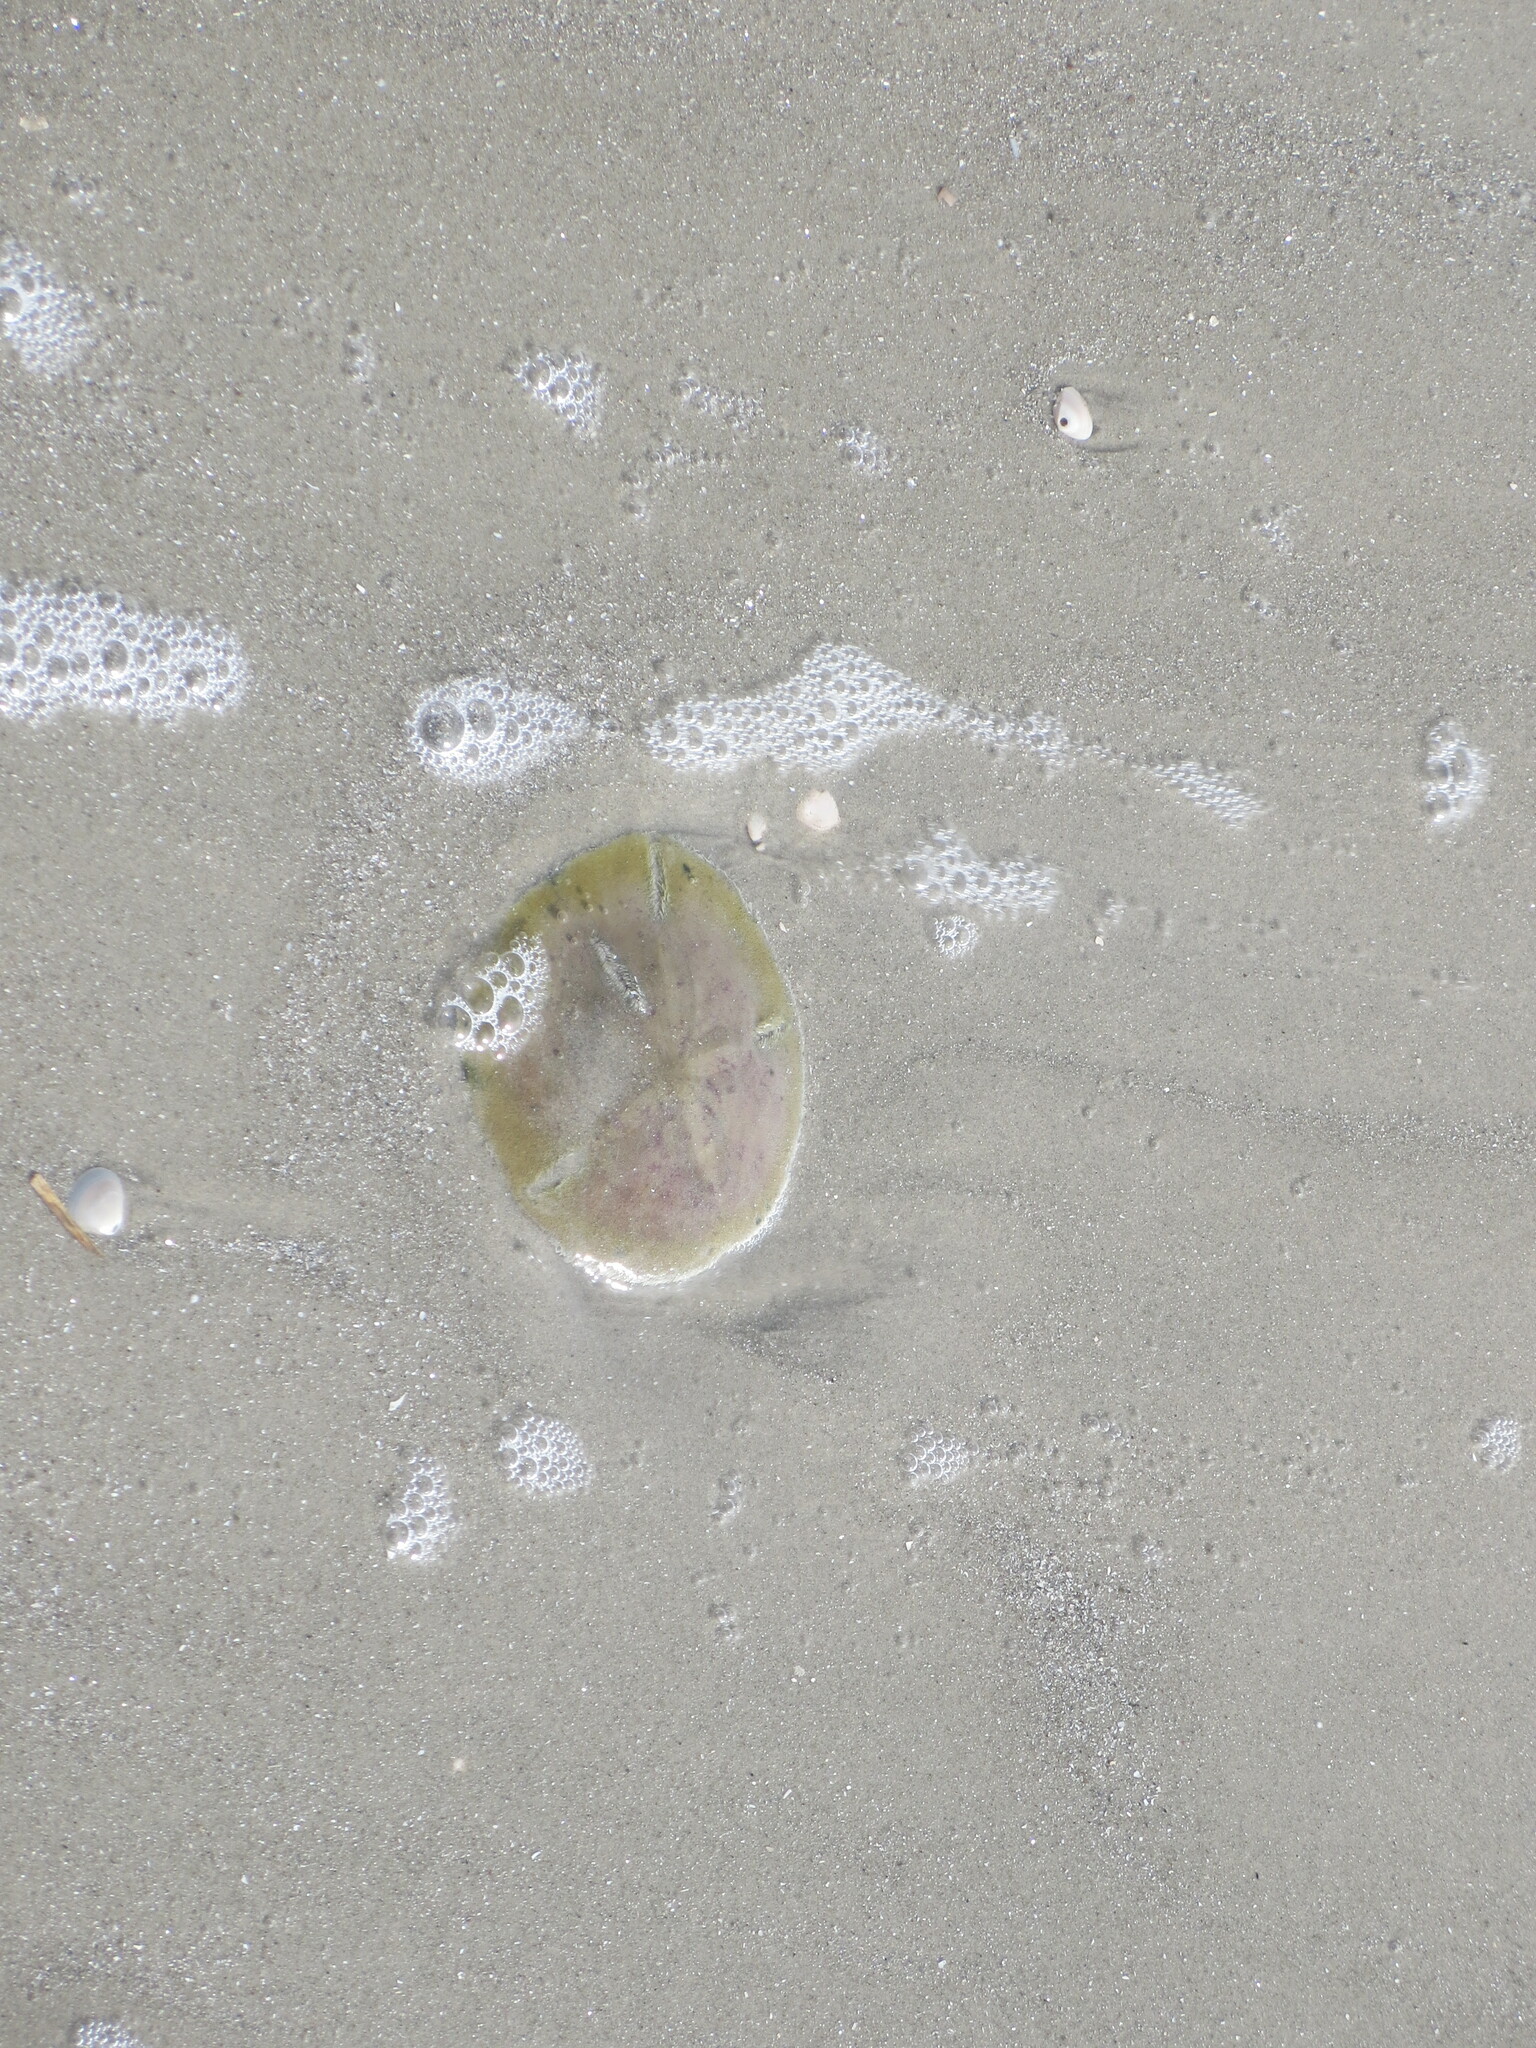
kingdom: Animalia
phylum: Echinodermata
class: Echinoidea
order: Echinolampadacea
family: Mellitidae
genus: Mellita
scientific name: Mellita isometra
